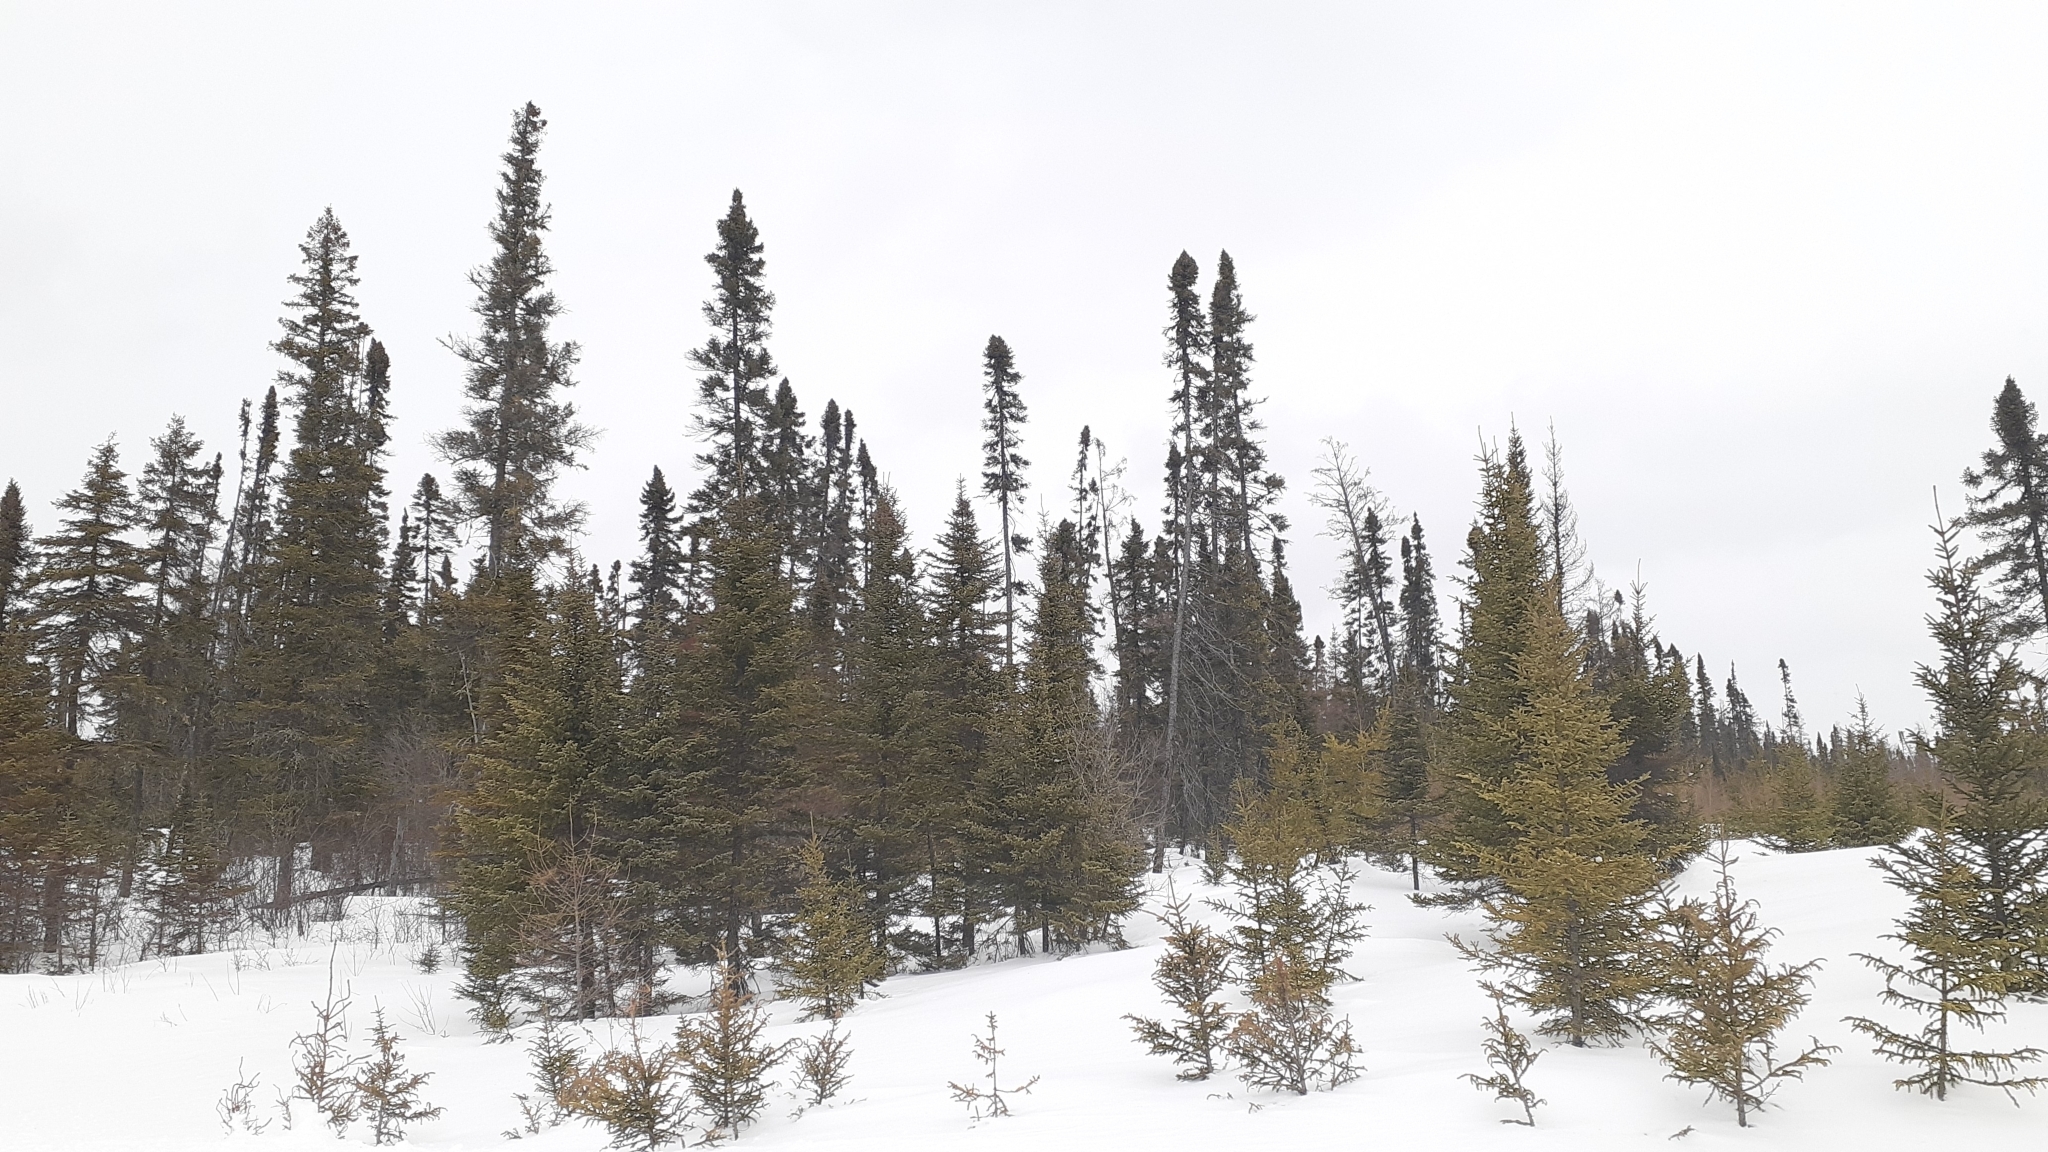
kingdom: Plantae
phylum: Tracheophyta
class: Pinopsida
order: Pinales
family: Pinaceae
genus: Picea
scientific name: Picea mariana
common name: Black spruce
